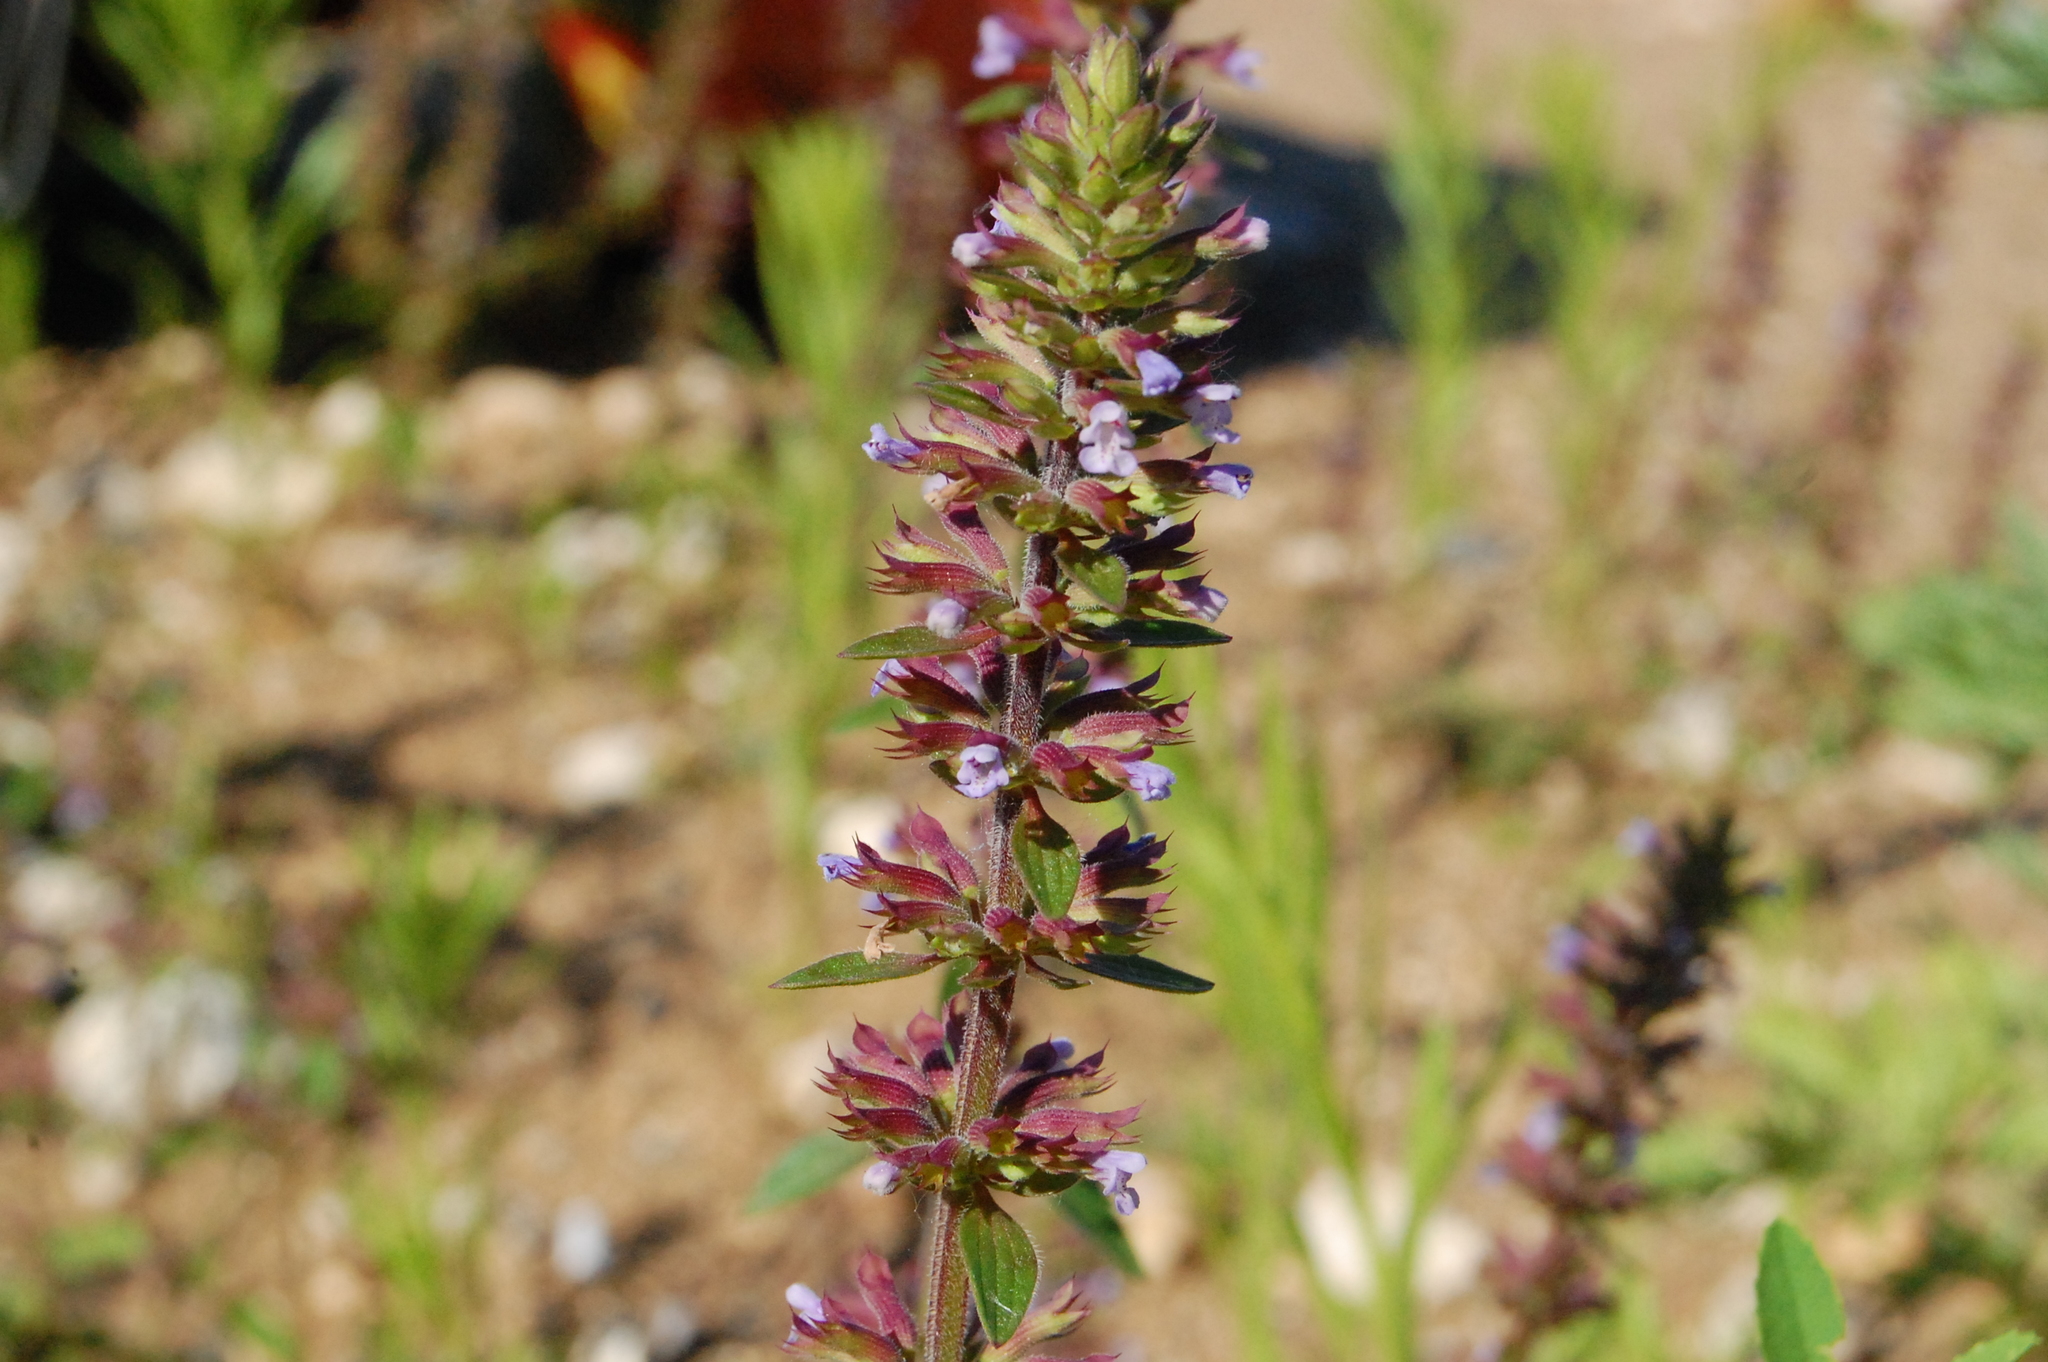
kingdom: Plantae
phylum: Tracheophyta
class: Magnoliopsida
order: Lamiales
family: Lamiaceae
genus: Dracocephalum
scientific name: Dracocephalum thymiflorum
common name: Thymeleaf dragonhead
